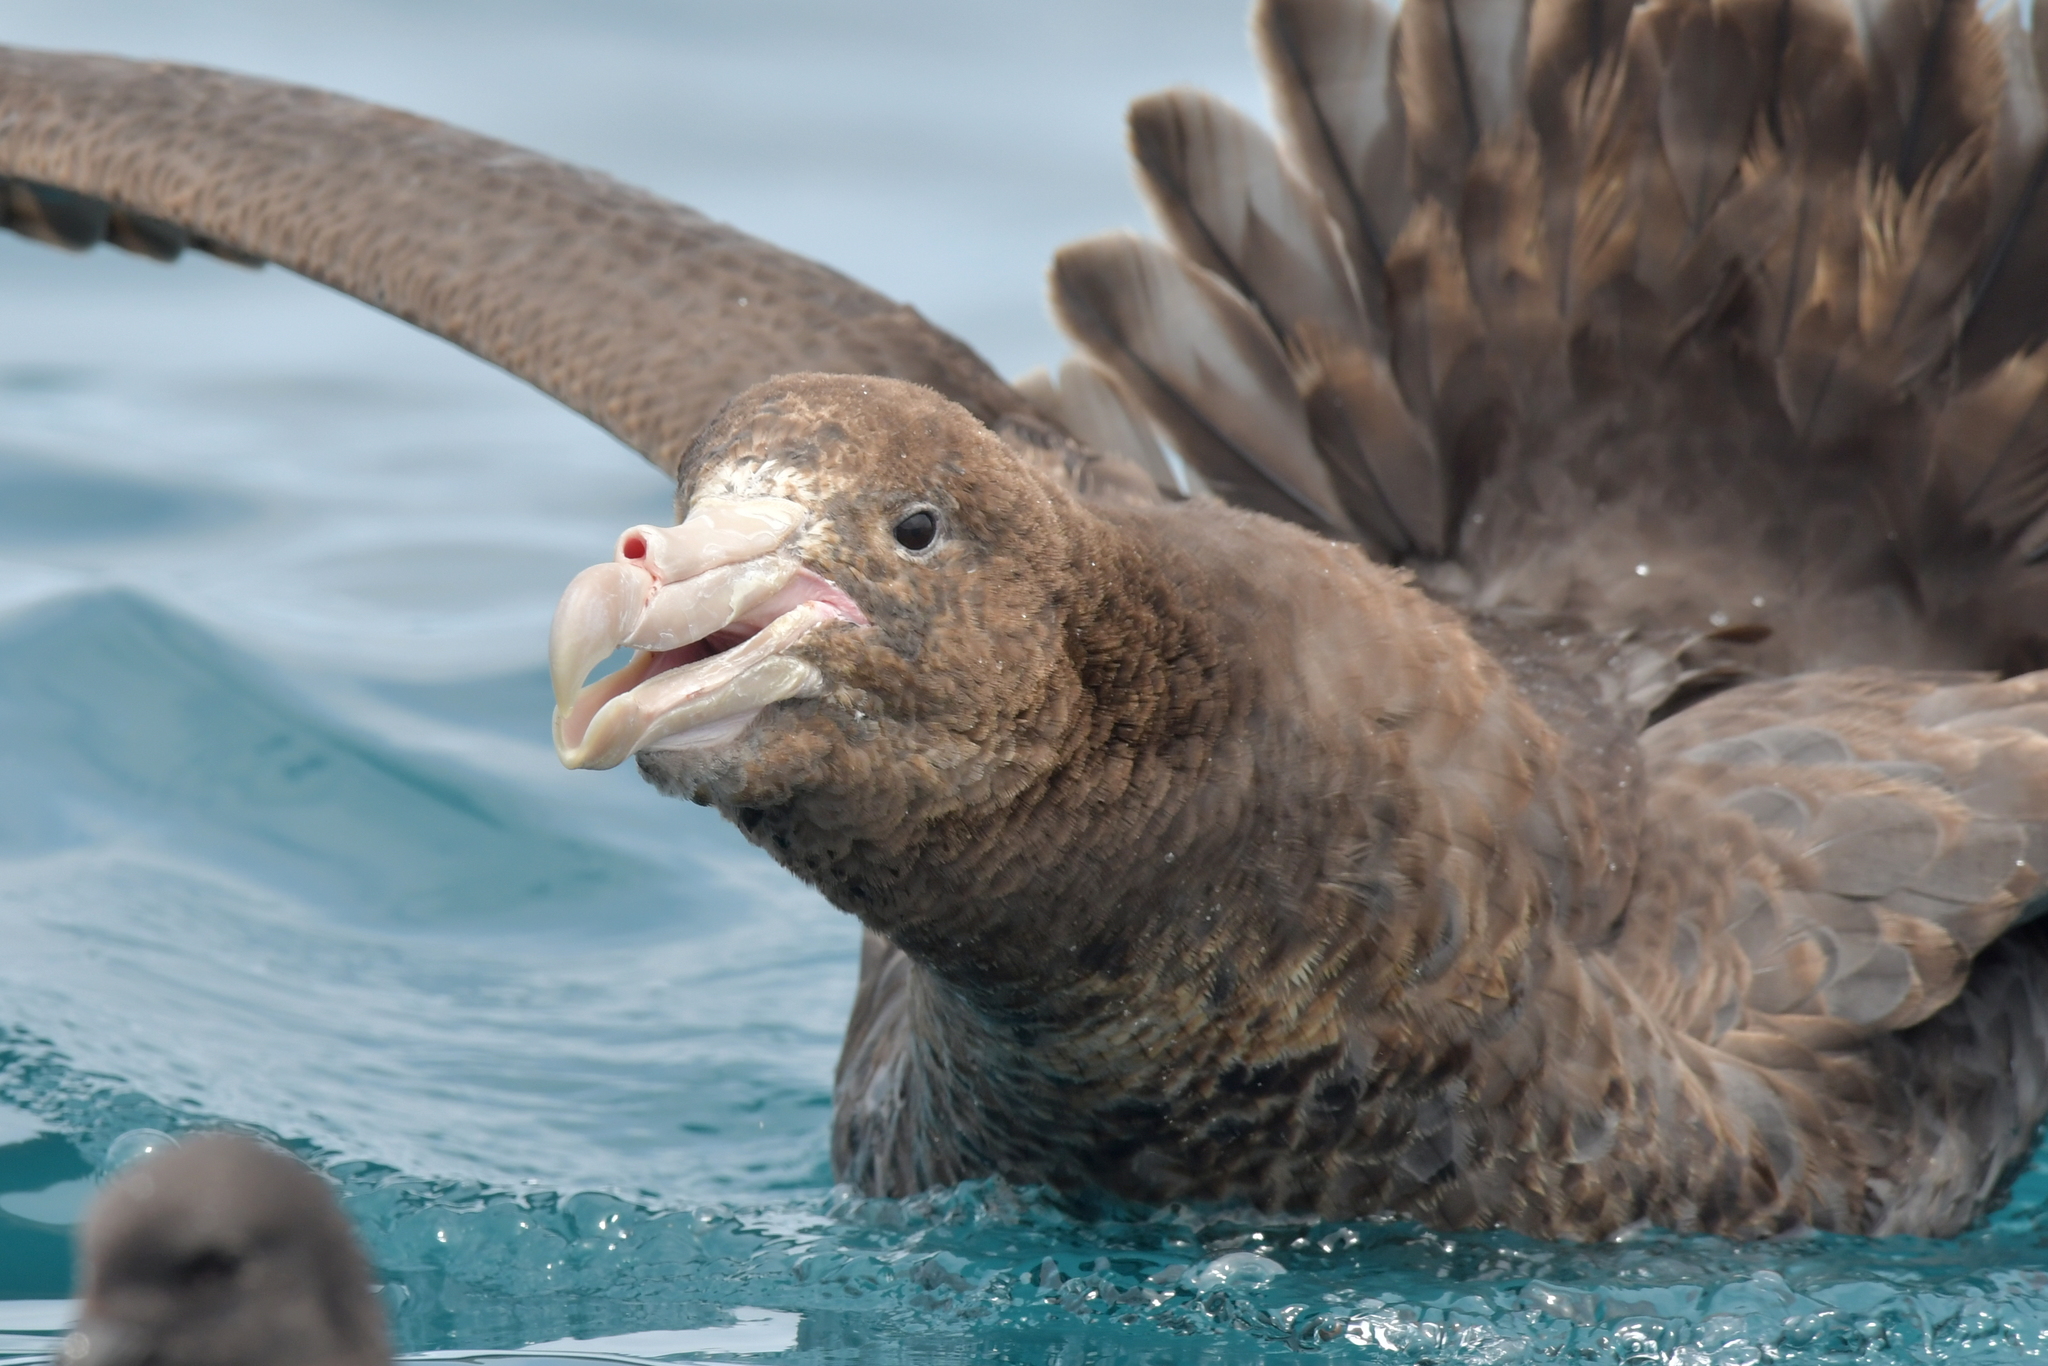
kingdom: Animalia
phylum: Chordata
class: Aves
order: Procellariiformes
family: Procellariidae
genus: Macronectes
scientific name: Macronectes giganteus
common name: Southern giant petrel
